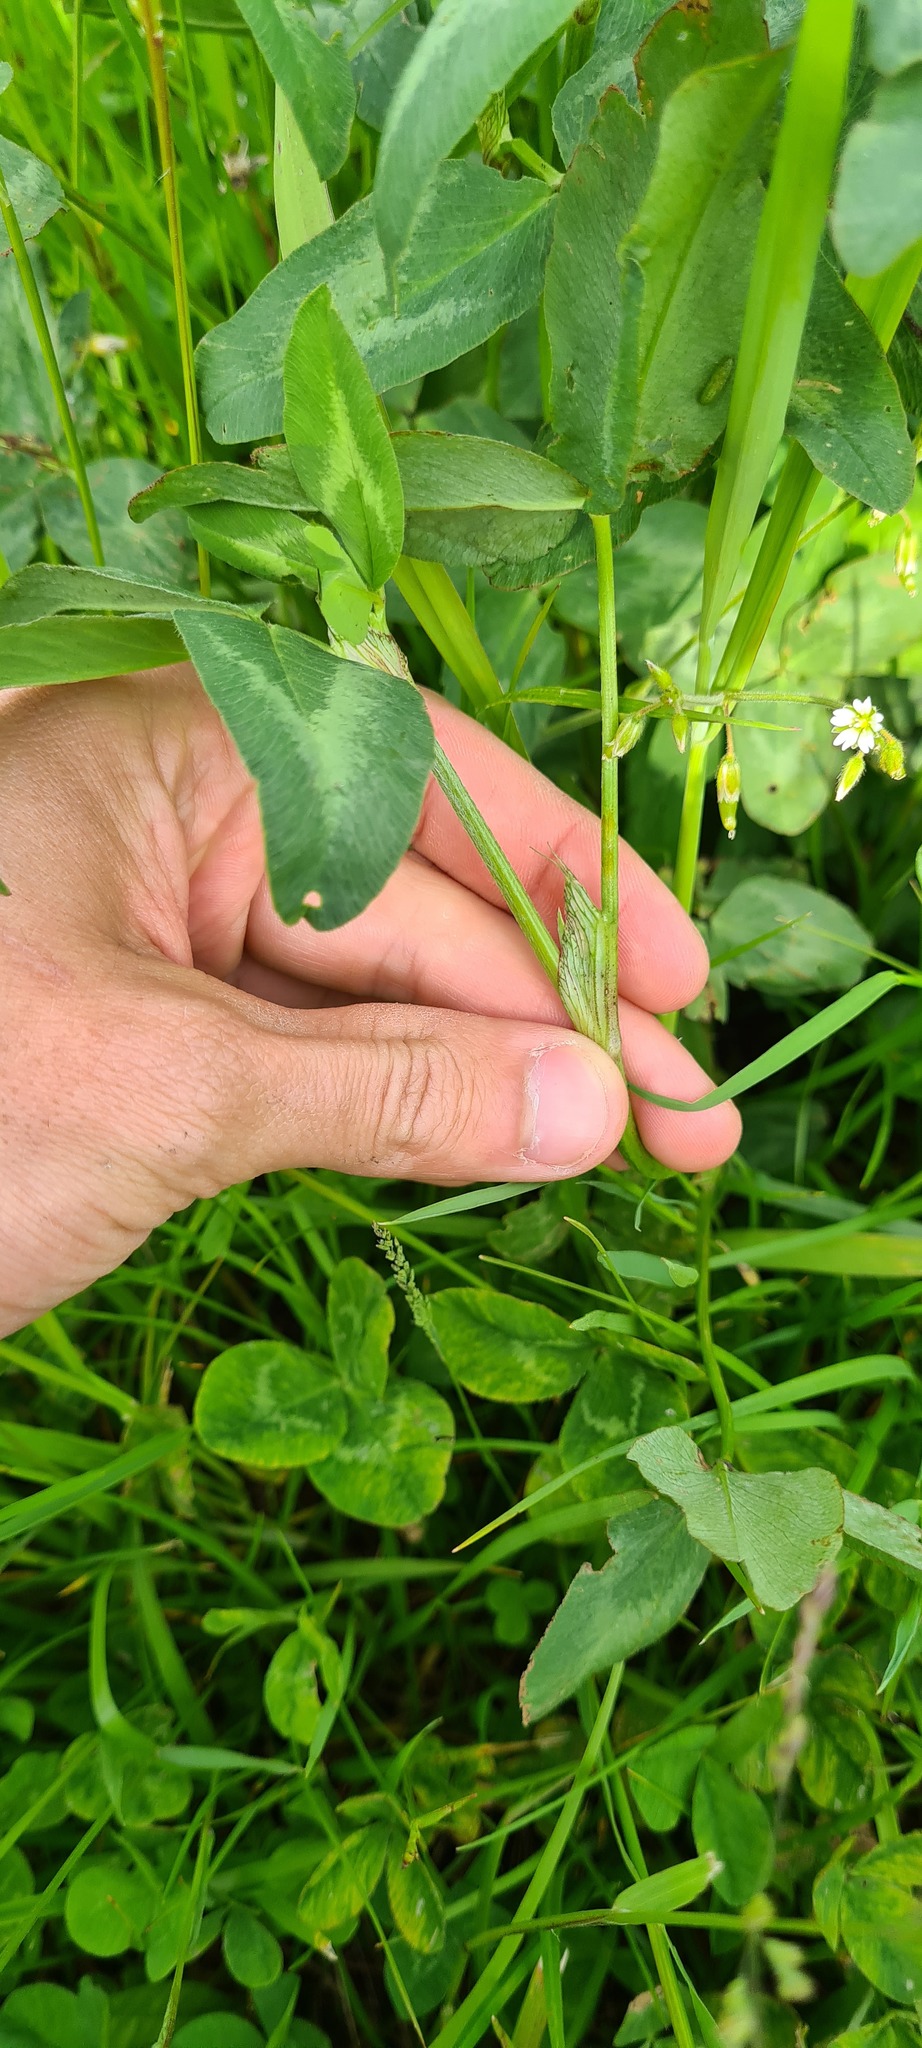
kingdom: Plantae
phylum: Tracheophyta
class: Magnoliopsida
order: Fabales
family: Fabaceae
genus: Trifolium
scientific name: Trifolium pratense
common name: Red clover
